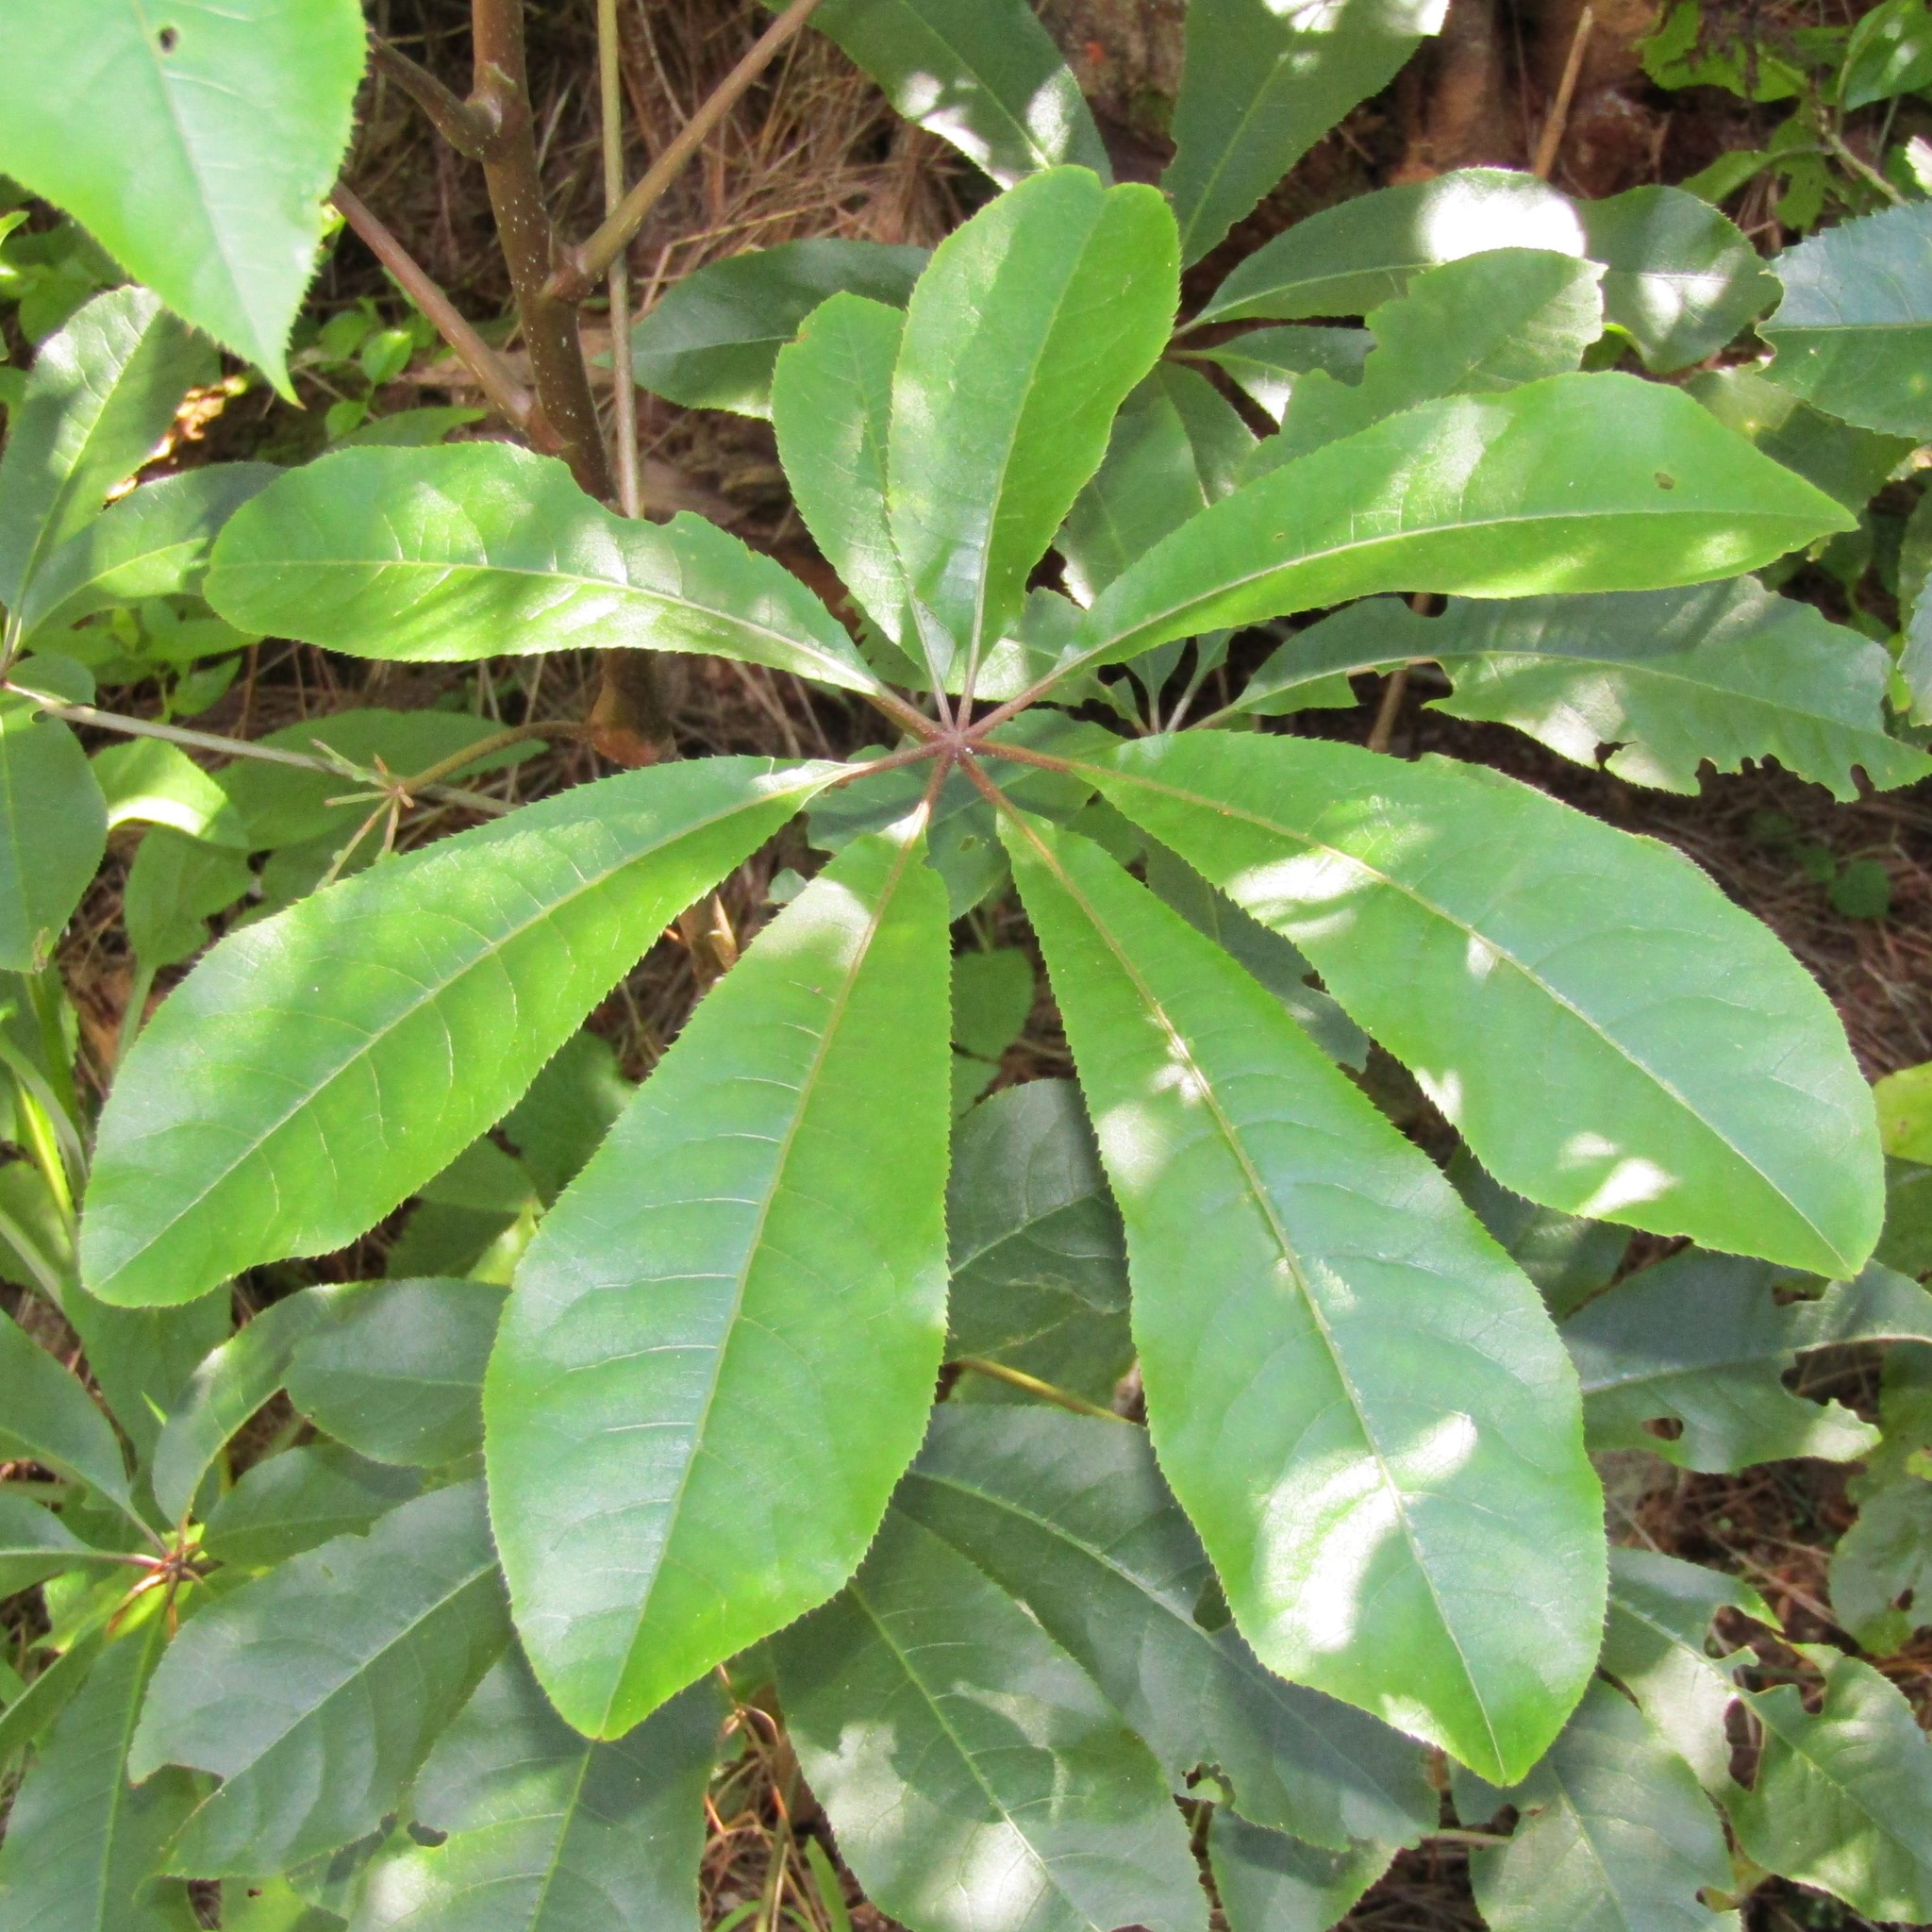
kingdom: Plantae
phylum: Tracheophyta
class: Magnoliopsida
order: Apiales
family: Araliaceae
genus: Schefflera
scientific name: Schefflera digitata
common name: Pate
